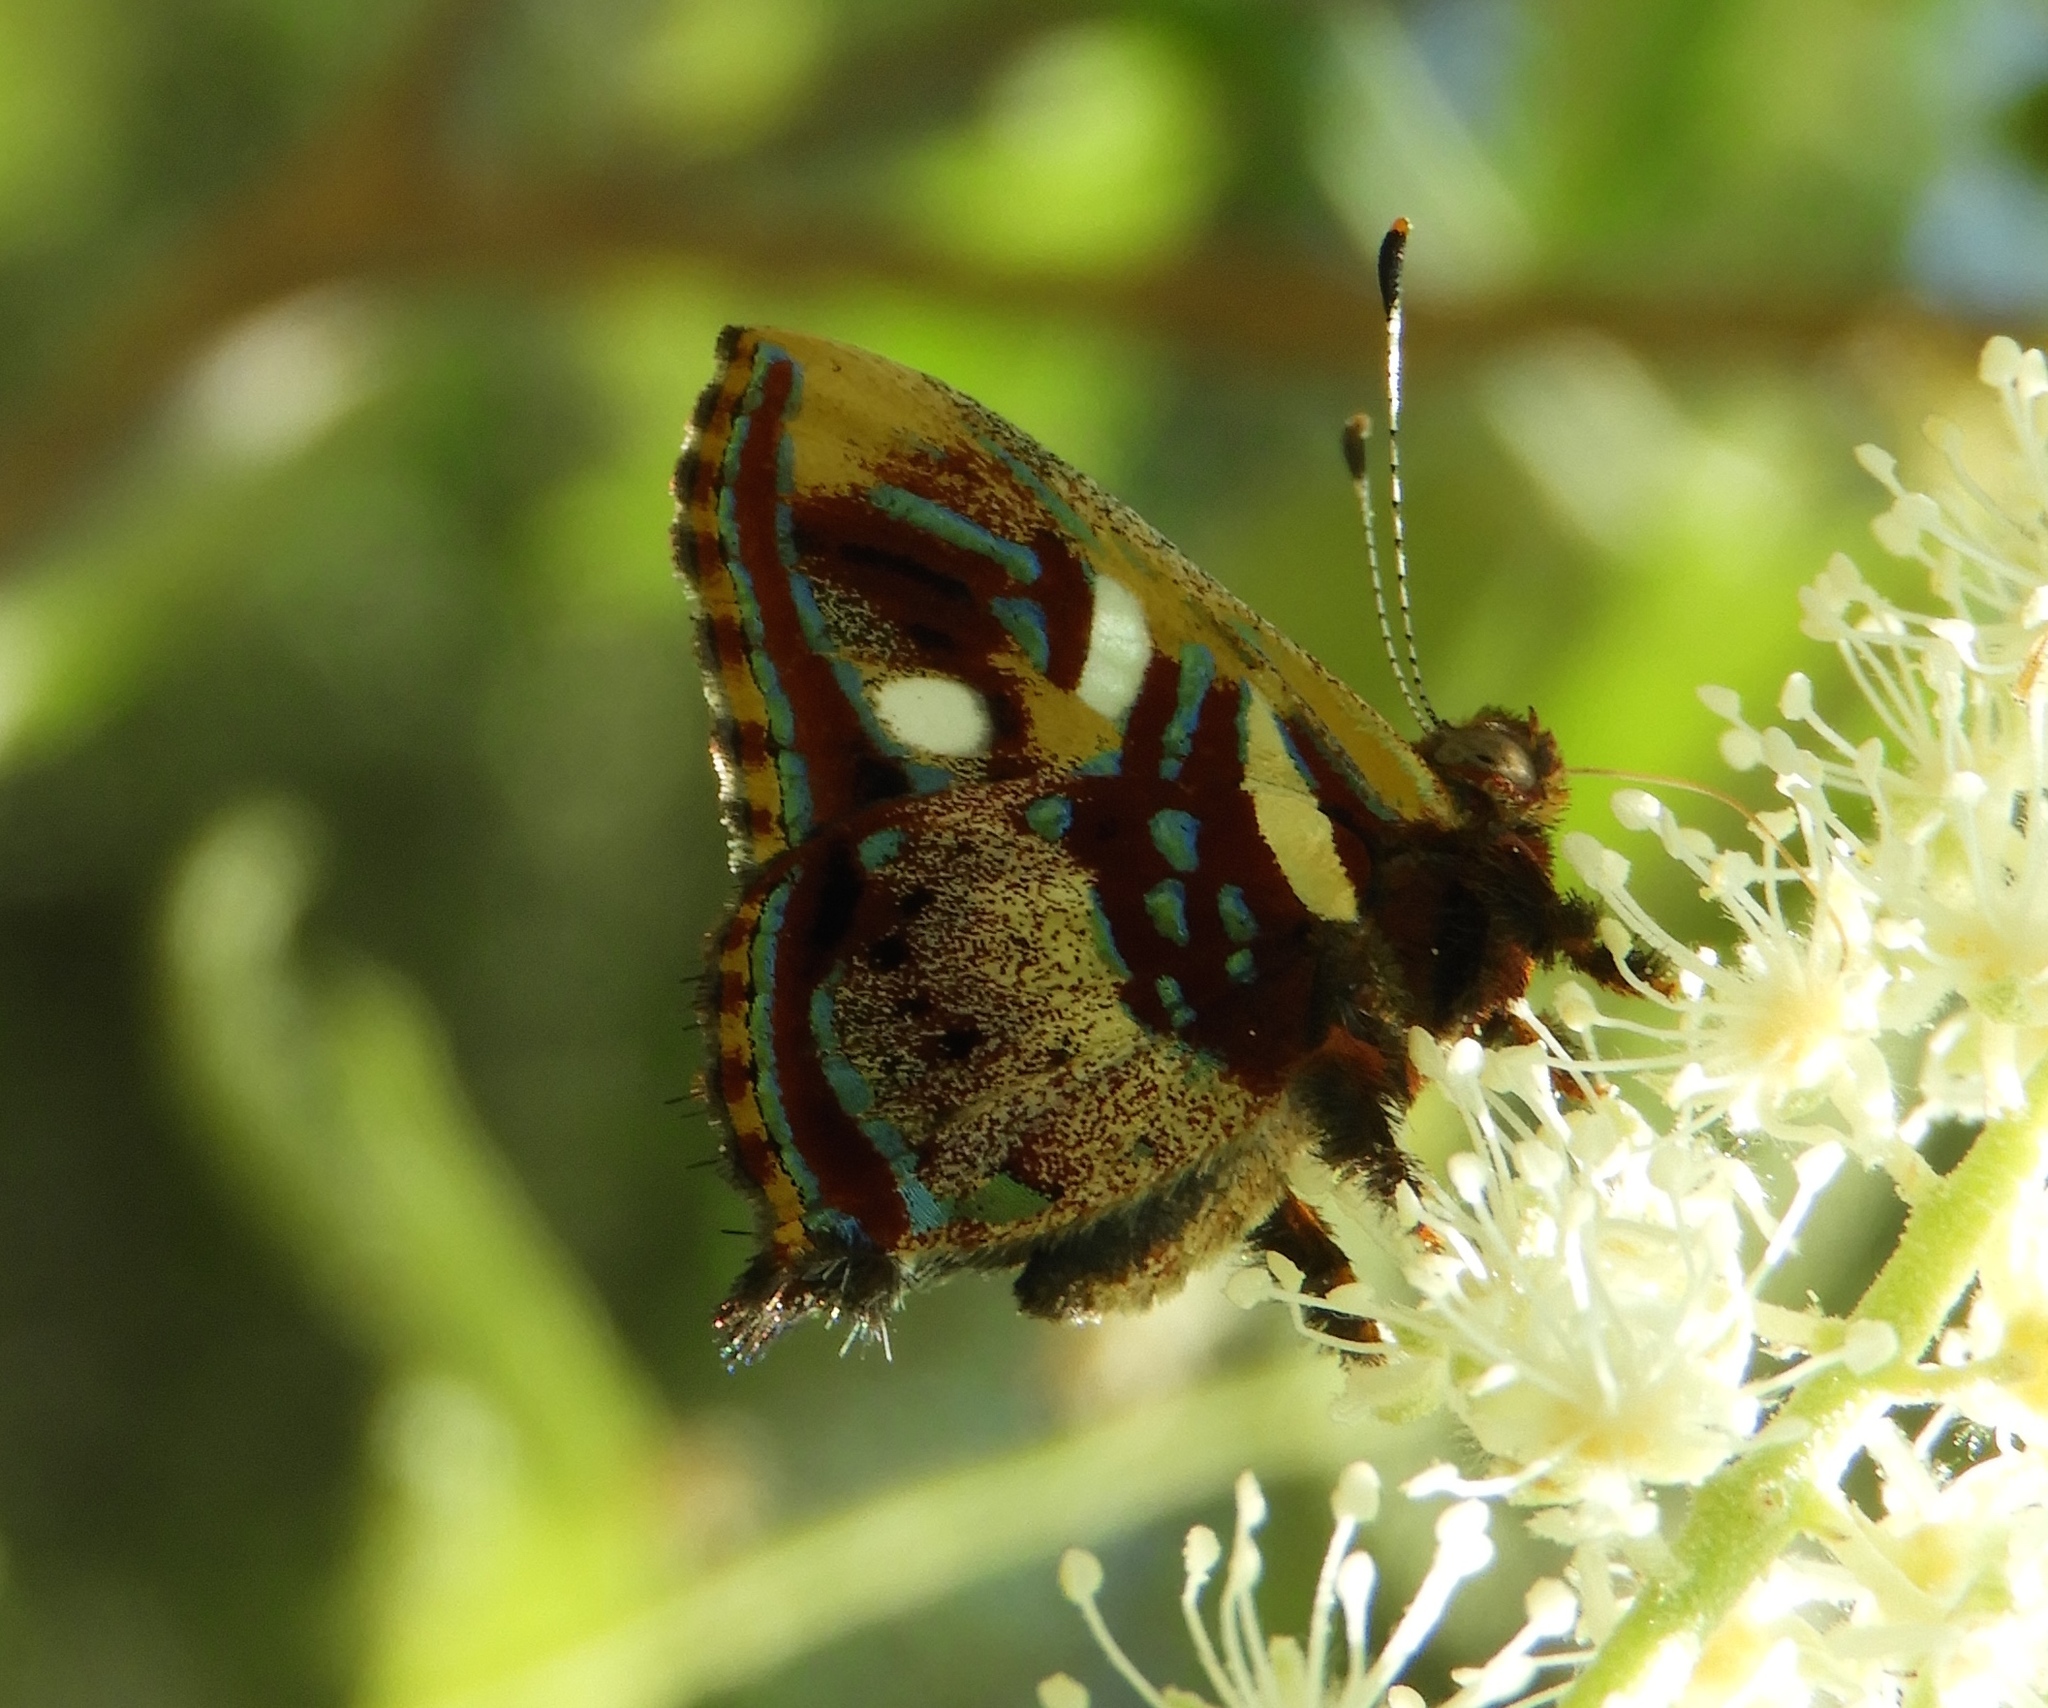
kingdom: Animalia
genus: Anteros
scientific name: Anteros carausius
